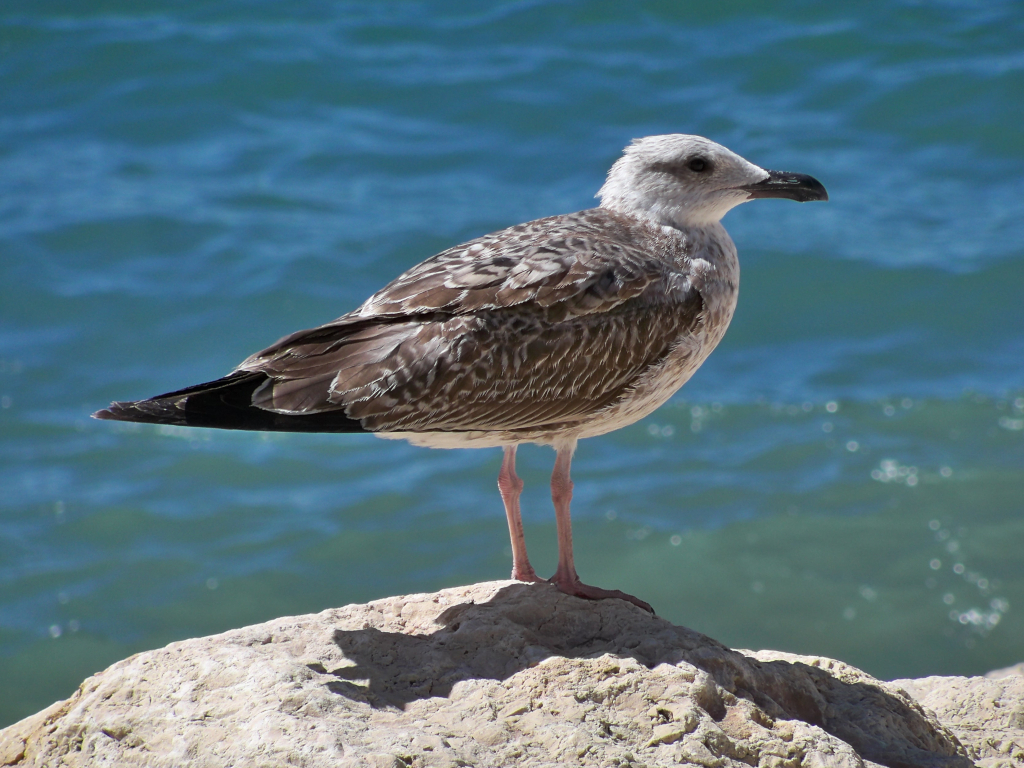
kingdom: Animalia
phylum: Chordata
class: Aves
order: Charadriiformes
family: Laridae
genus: Larus
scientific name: Larus michahellis
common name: Yellow-legged gull
